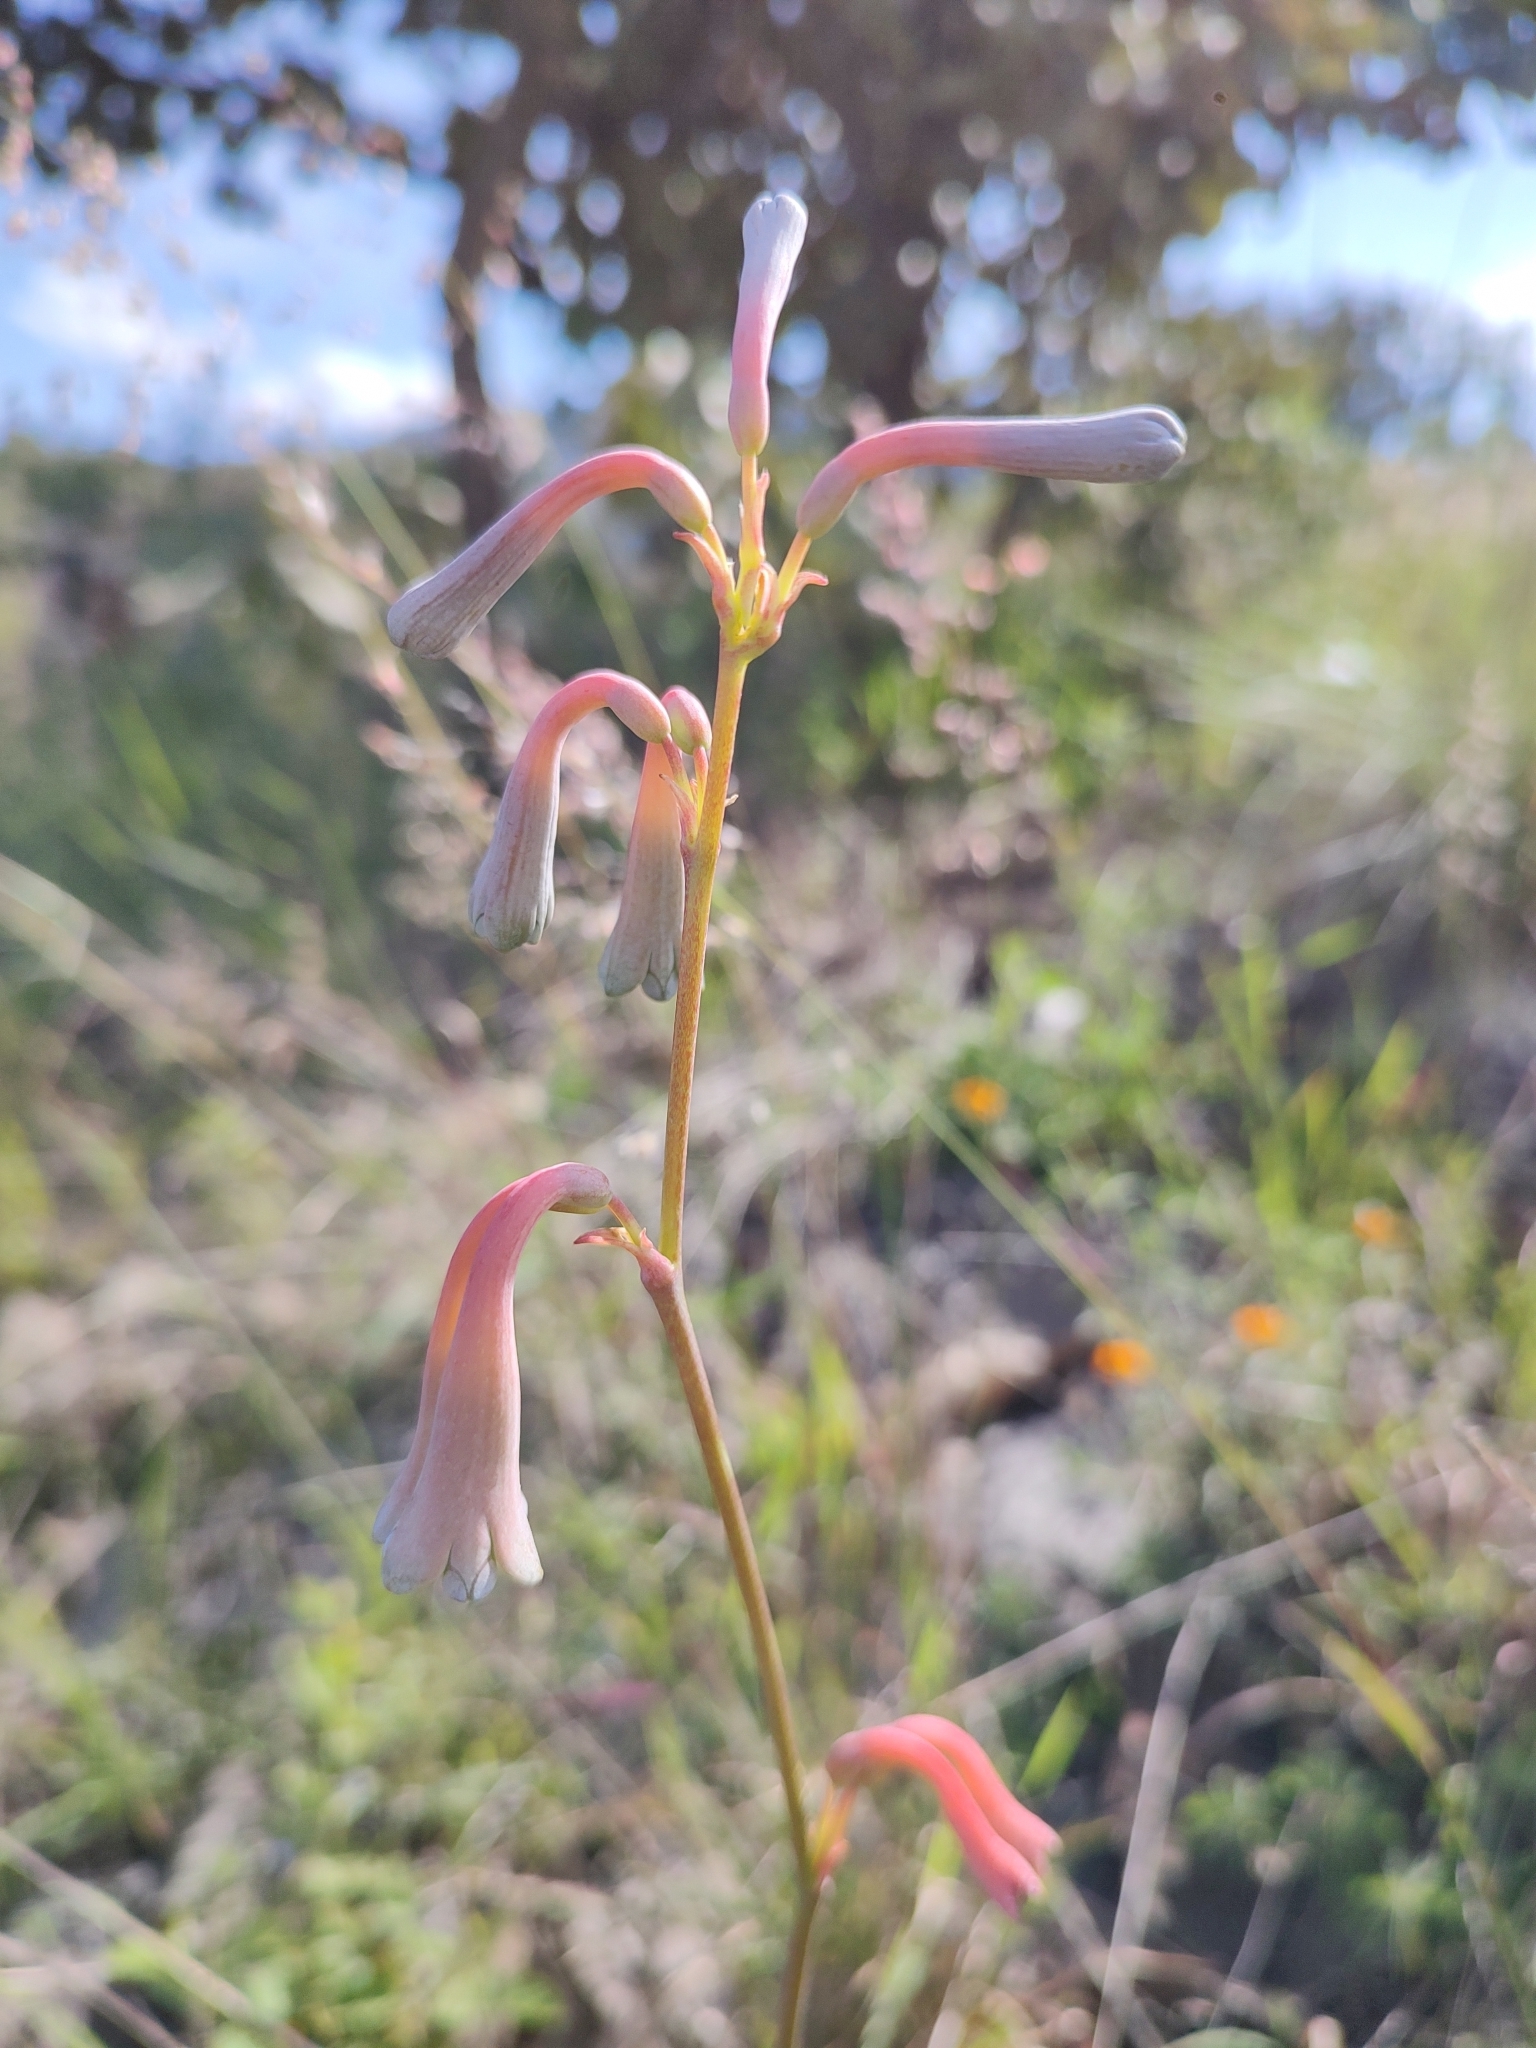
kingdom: Plantae
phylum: Tracheophyta
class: Liliopsida
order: Asparagales
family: Asparagaceae
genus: Agave
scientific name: Agave zapopanensis
